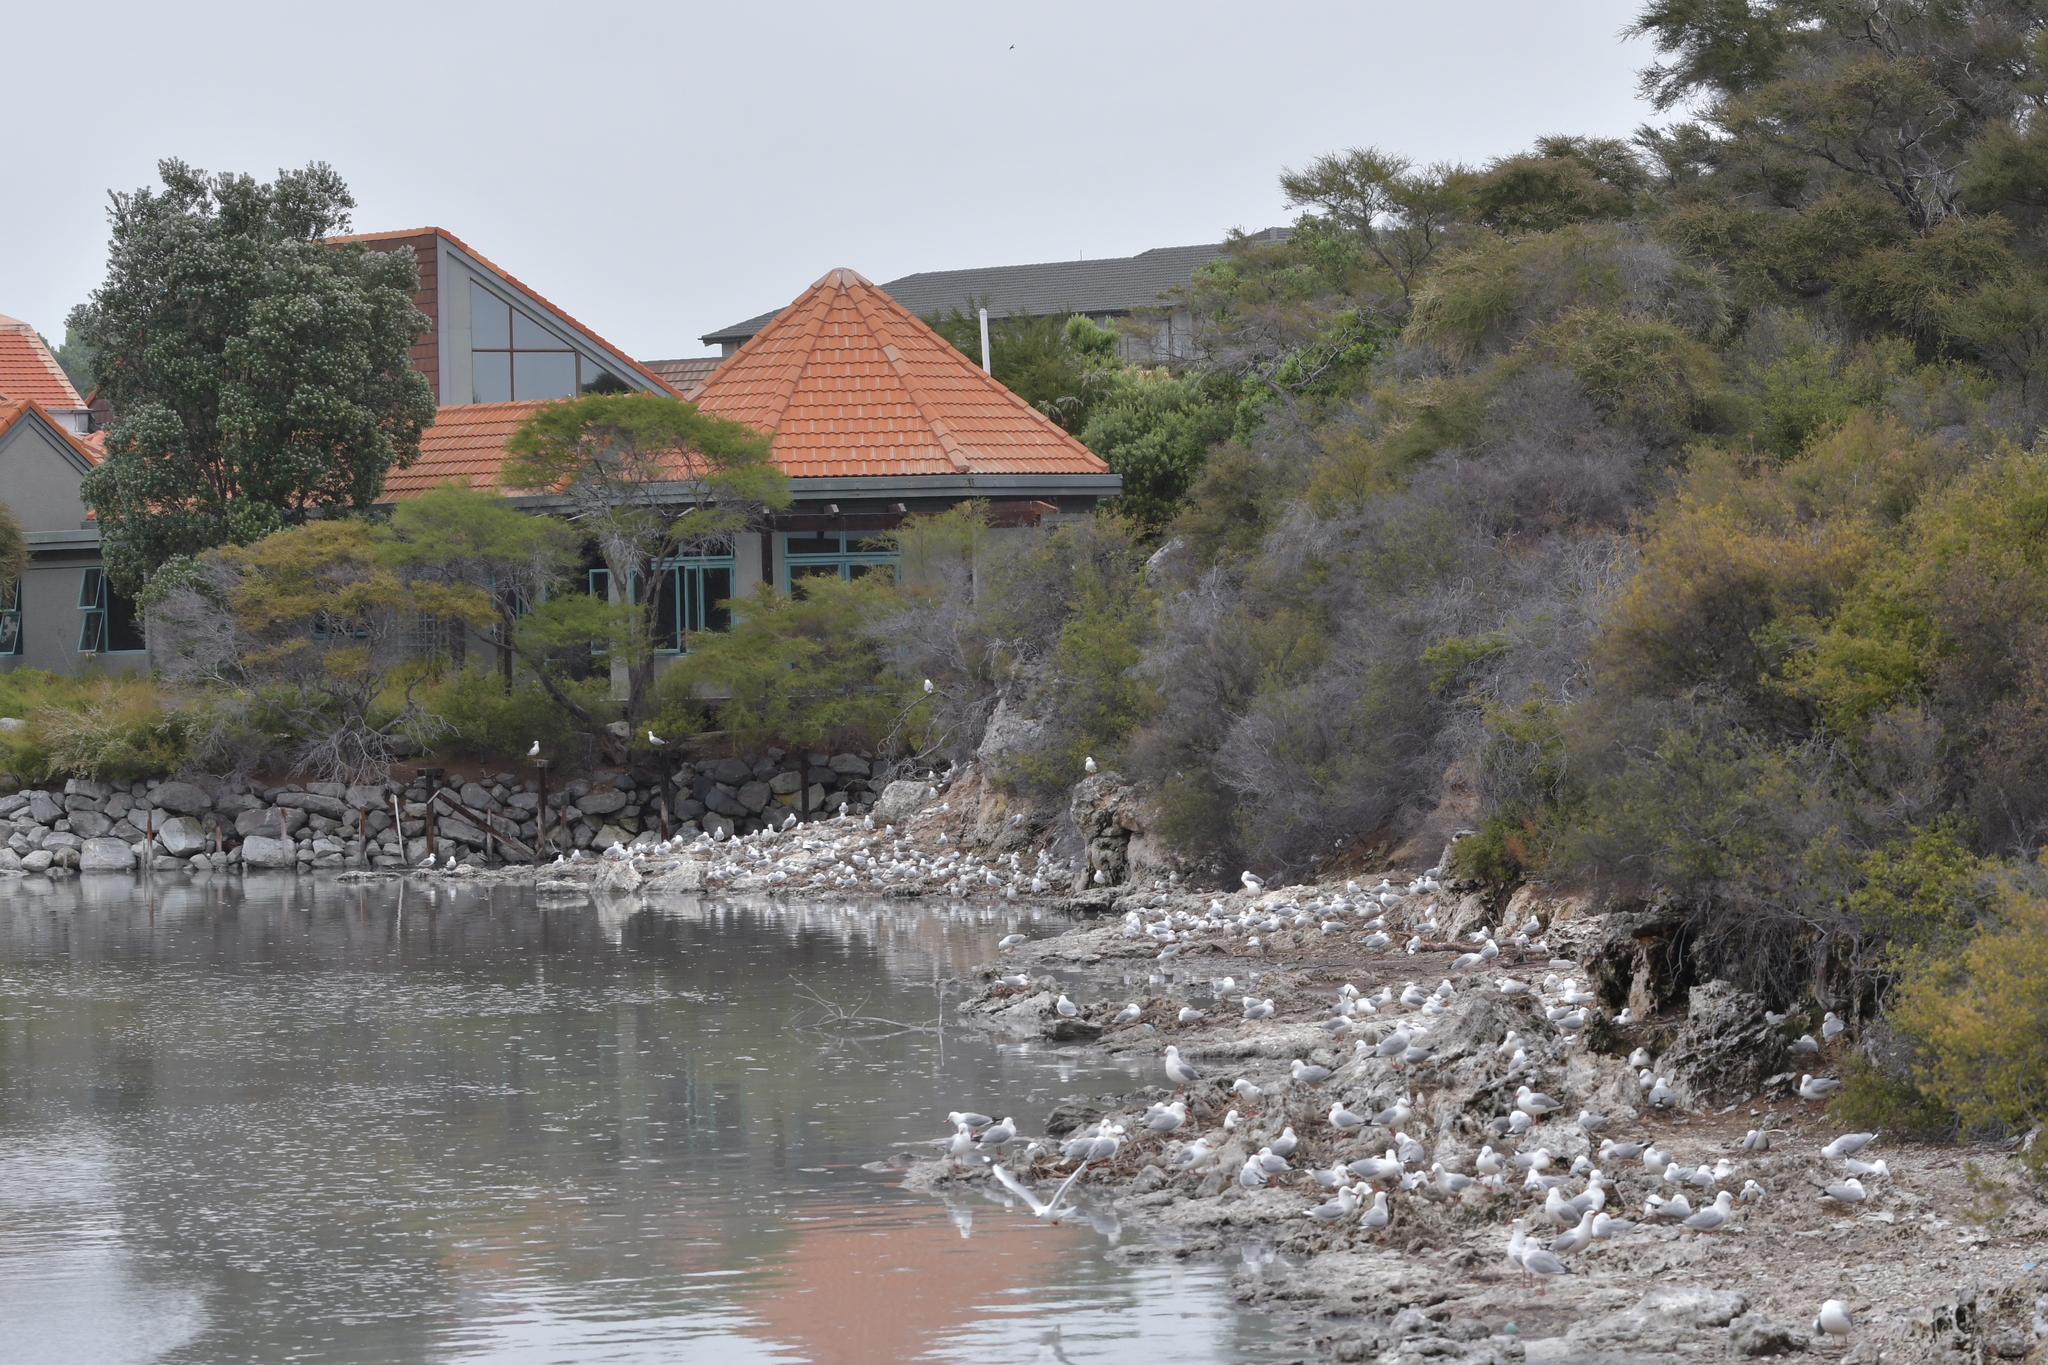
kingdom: Animalia
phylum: Chordata
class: Aves
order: Charadriiformes
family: Laridae
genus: Chroicocephalus
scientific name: Chroicocephalus novaehollandiae
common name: Silver gull
